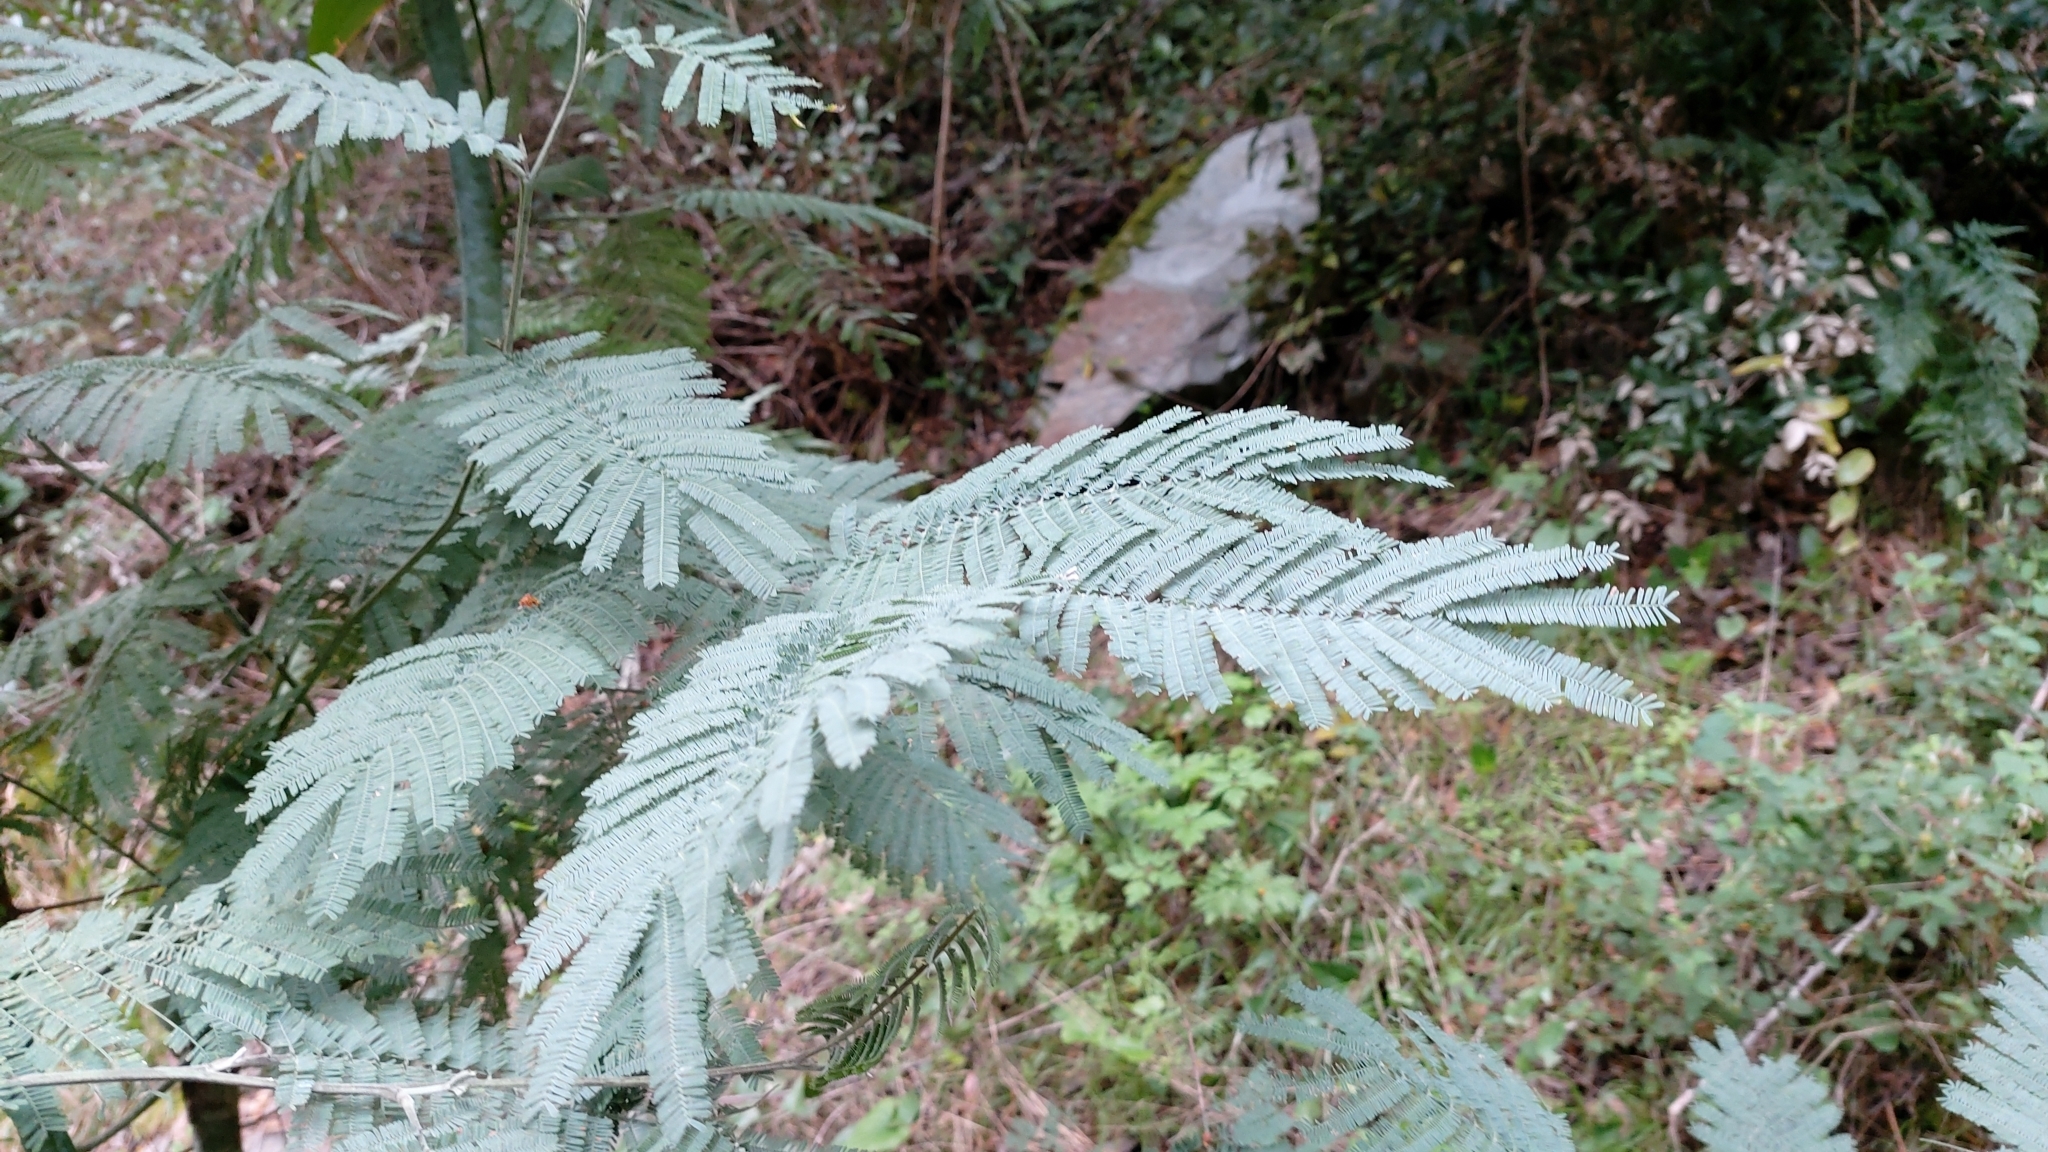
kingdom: Plantae
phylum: Tracheophyta
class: Magnoliopsida
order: Fabales
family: Fabaceae
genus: Acacia
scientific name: Acacia dealbata
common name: Silver wattle
